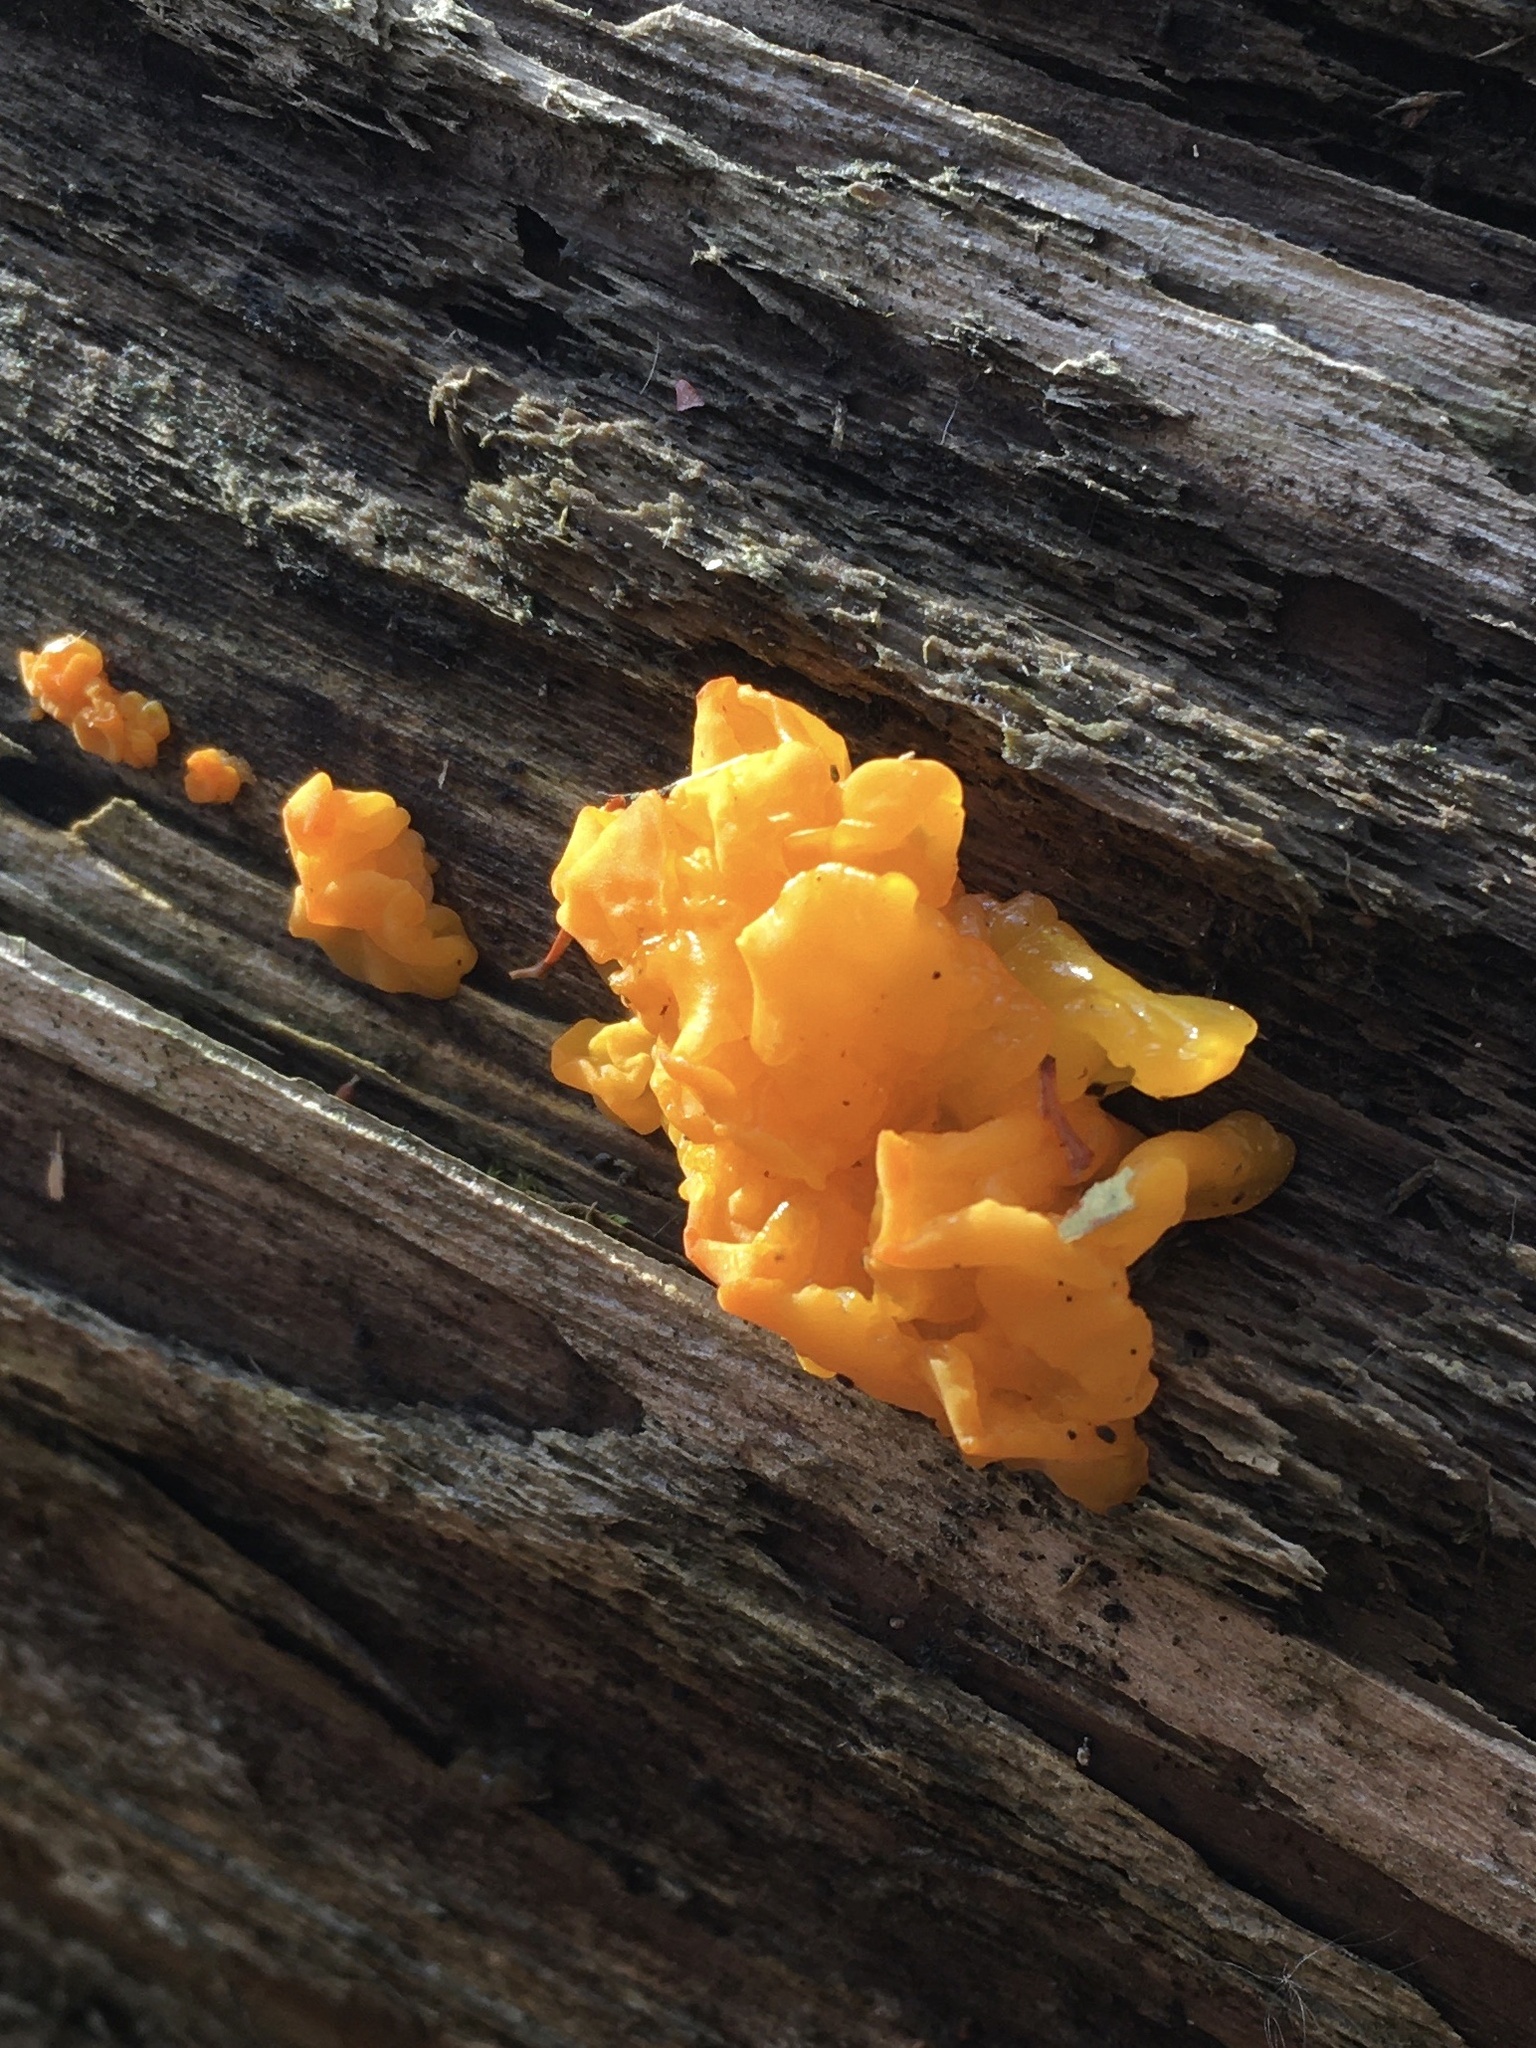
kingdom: Fungi
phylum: Basidiomycota
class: Dacrymycetes
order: Dacrymycetales
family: Dacrymycetaceae
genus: Dacrymyces
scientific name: Dacrymyces chrysospermus
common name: Orange jelly spot
